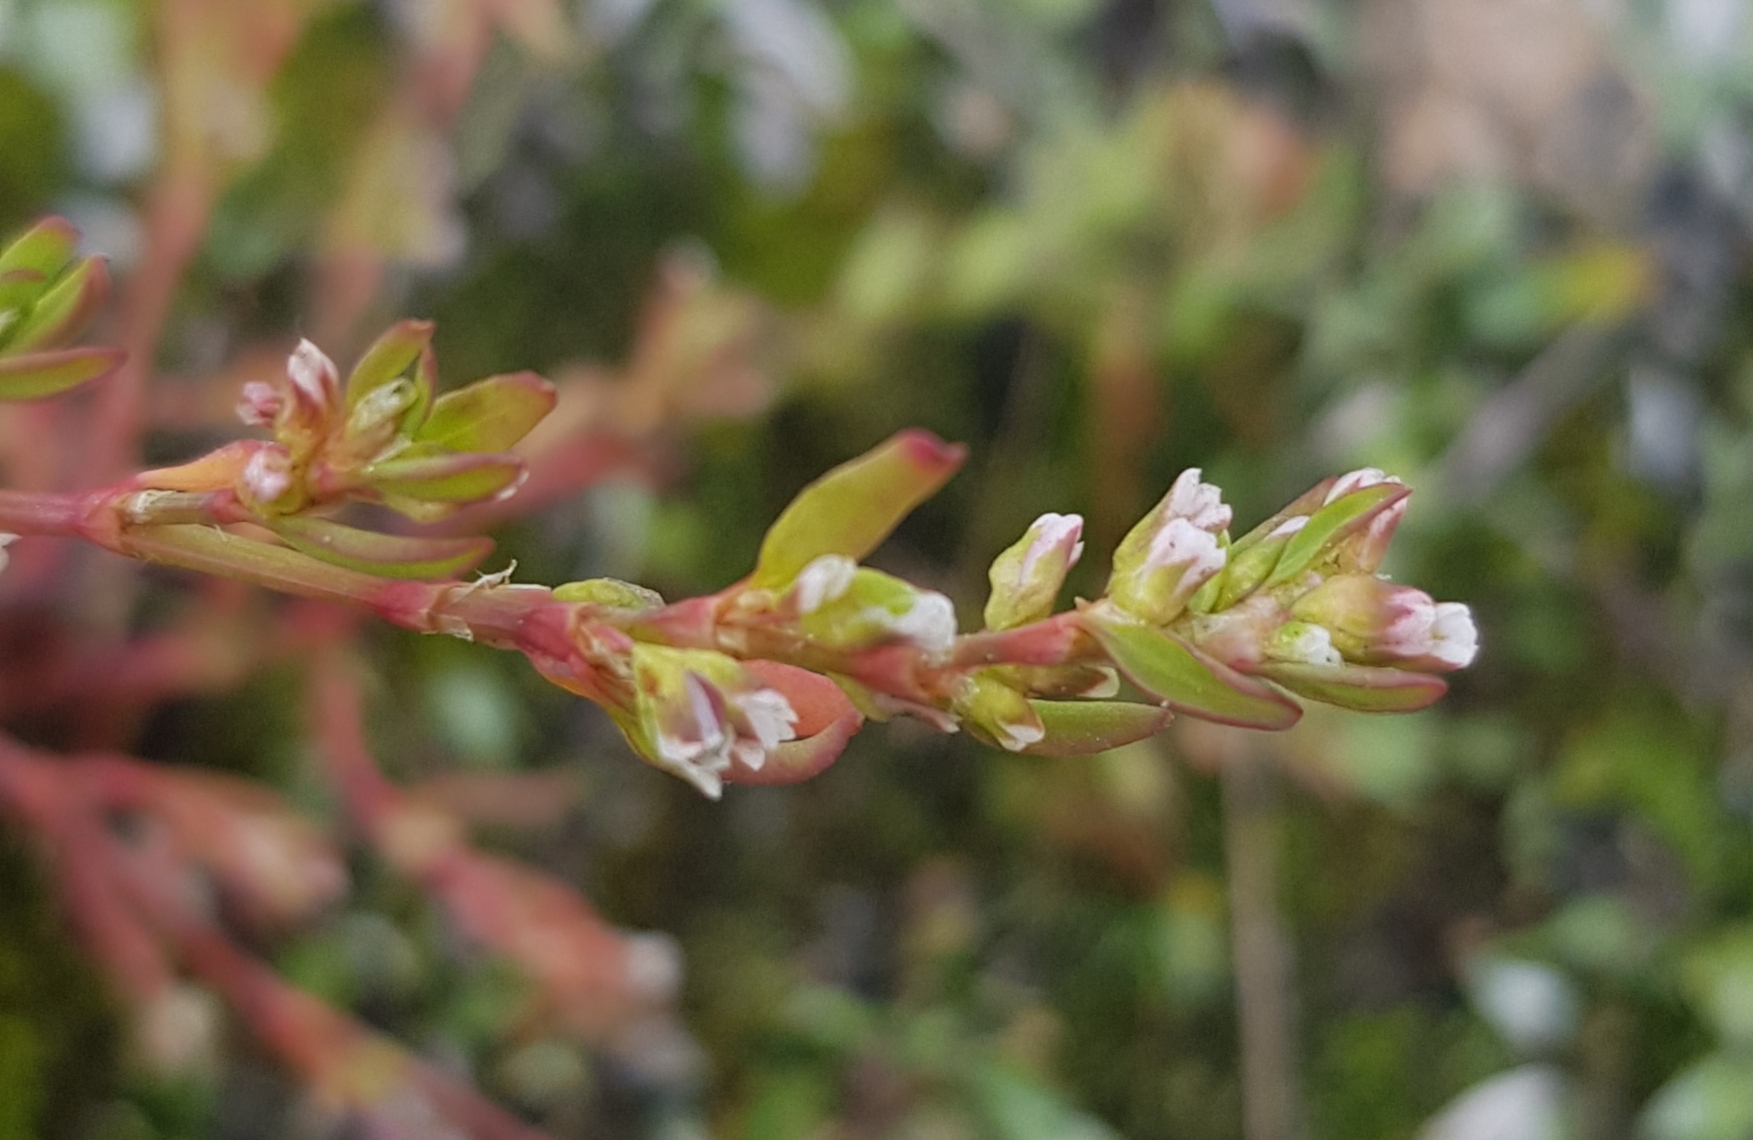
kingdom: Plantae
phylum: Tracheophyta
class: Magnoliopsida
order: Caryophyllales
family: Polygonaceae
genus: Polygonum
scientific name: Polygonum arenastrum
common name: Equal-leaved knotgrass
